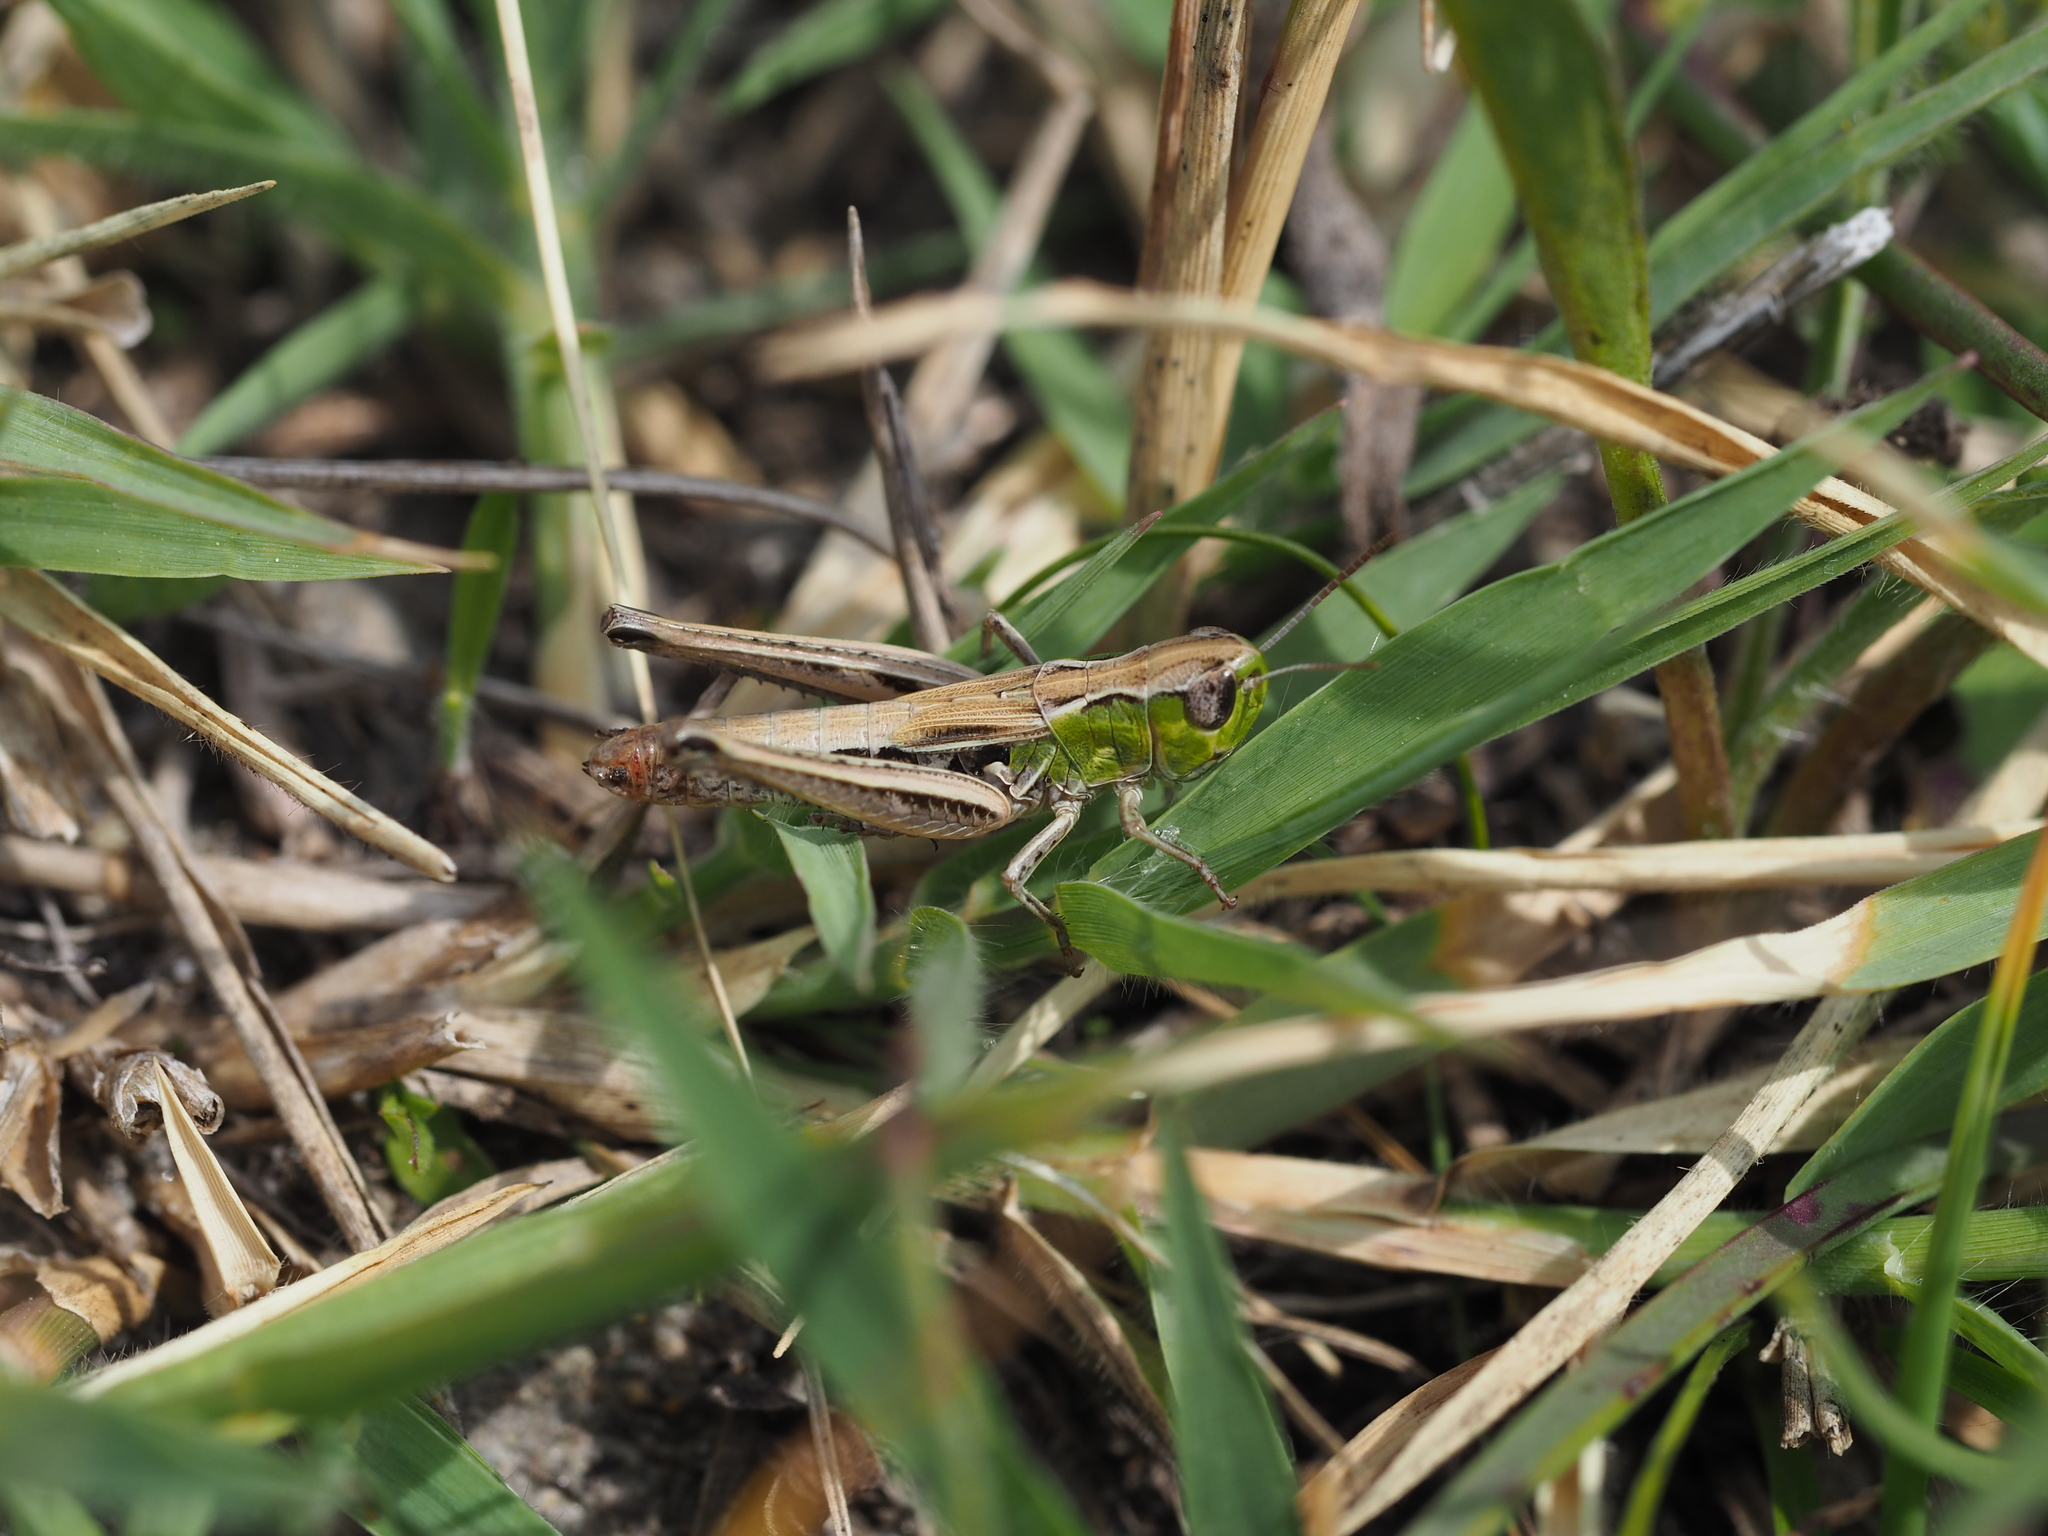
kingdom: Animalia
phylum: Arthropoda
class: Insecta
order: Orthoptera
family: Acrididae
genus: Stenobothrus
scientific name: Stenobothrus crassipes
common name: Pygmy toothed grasshopper
